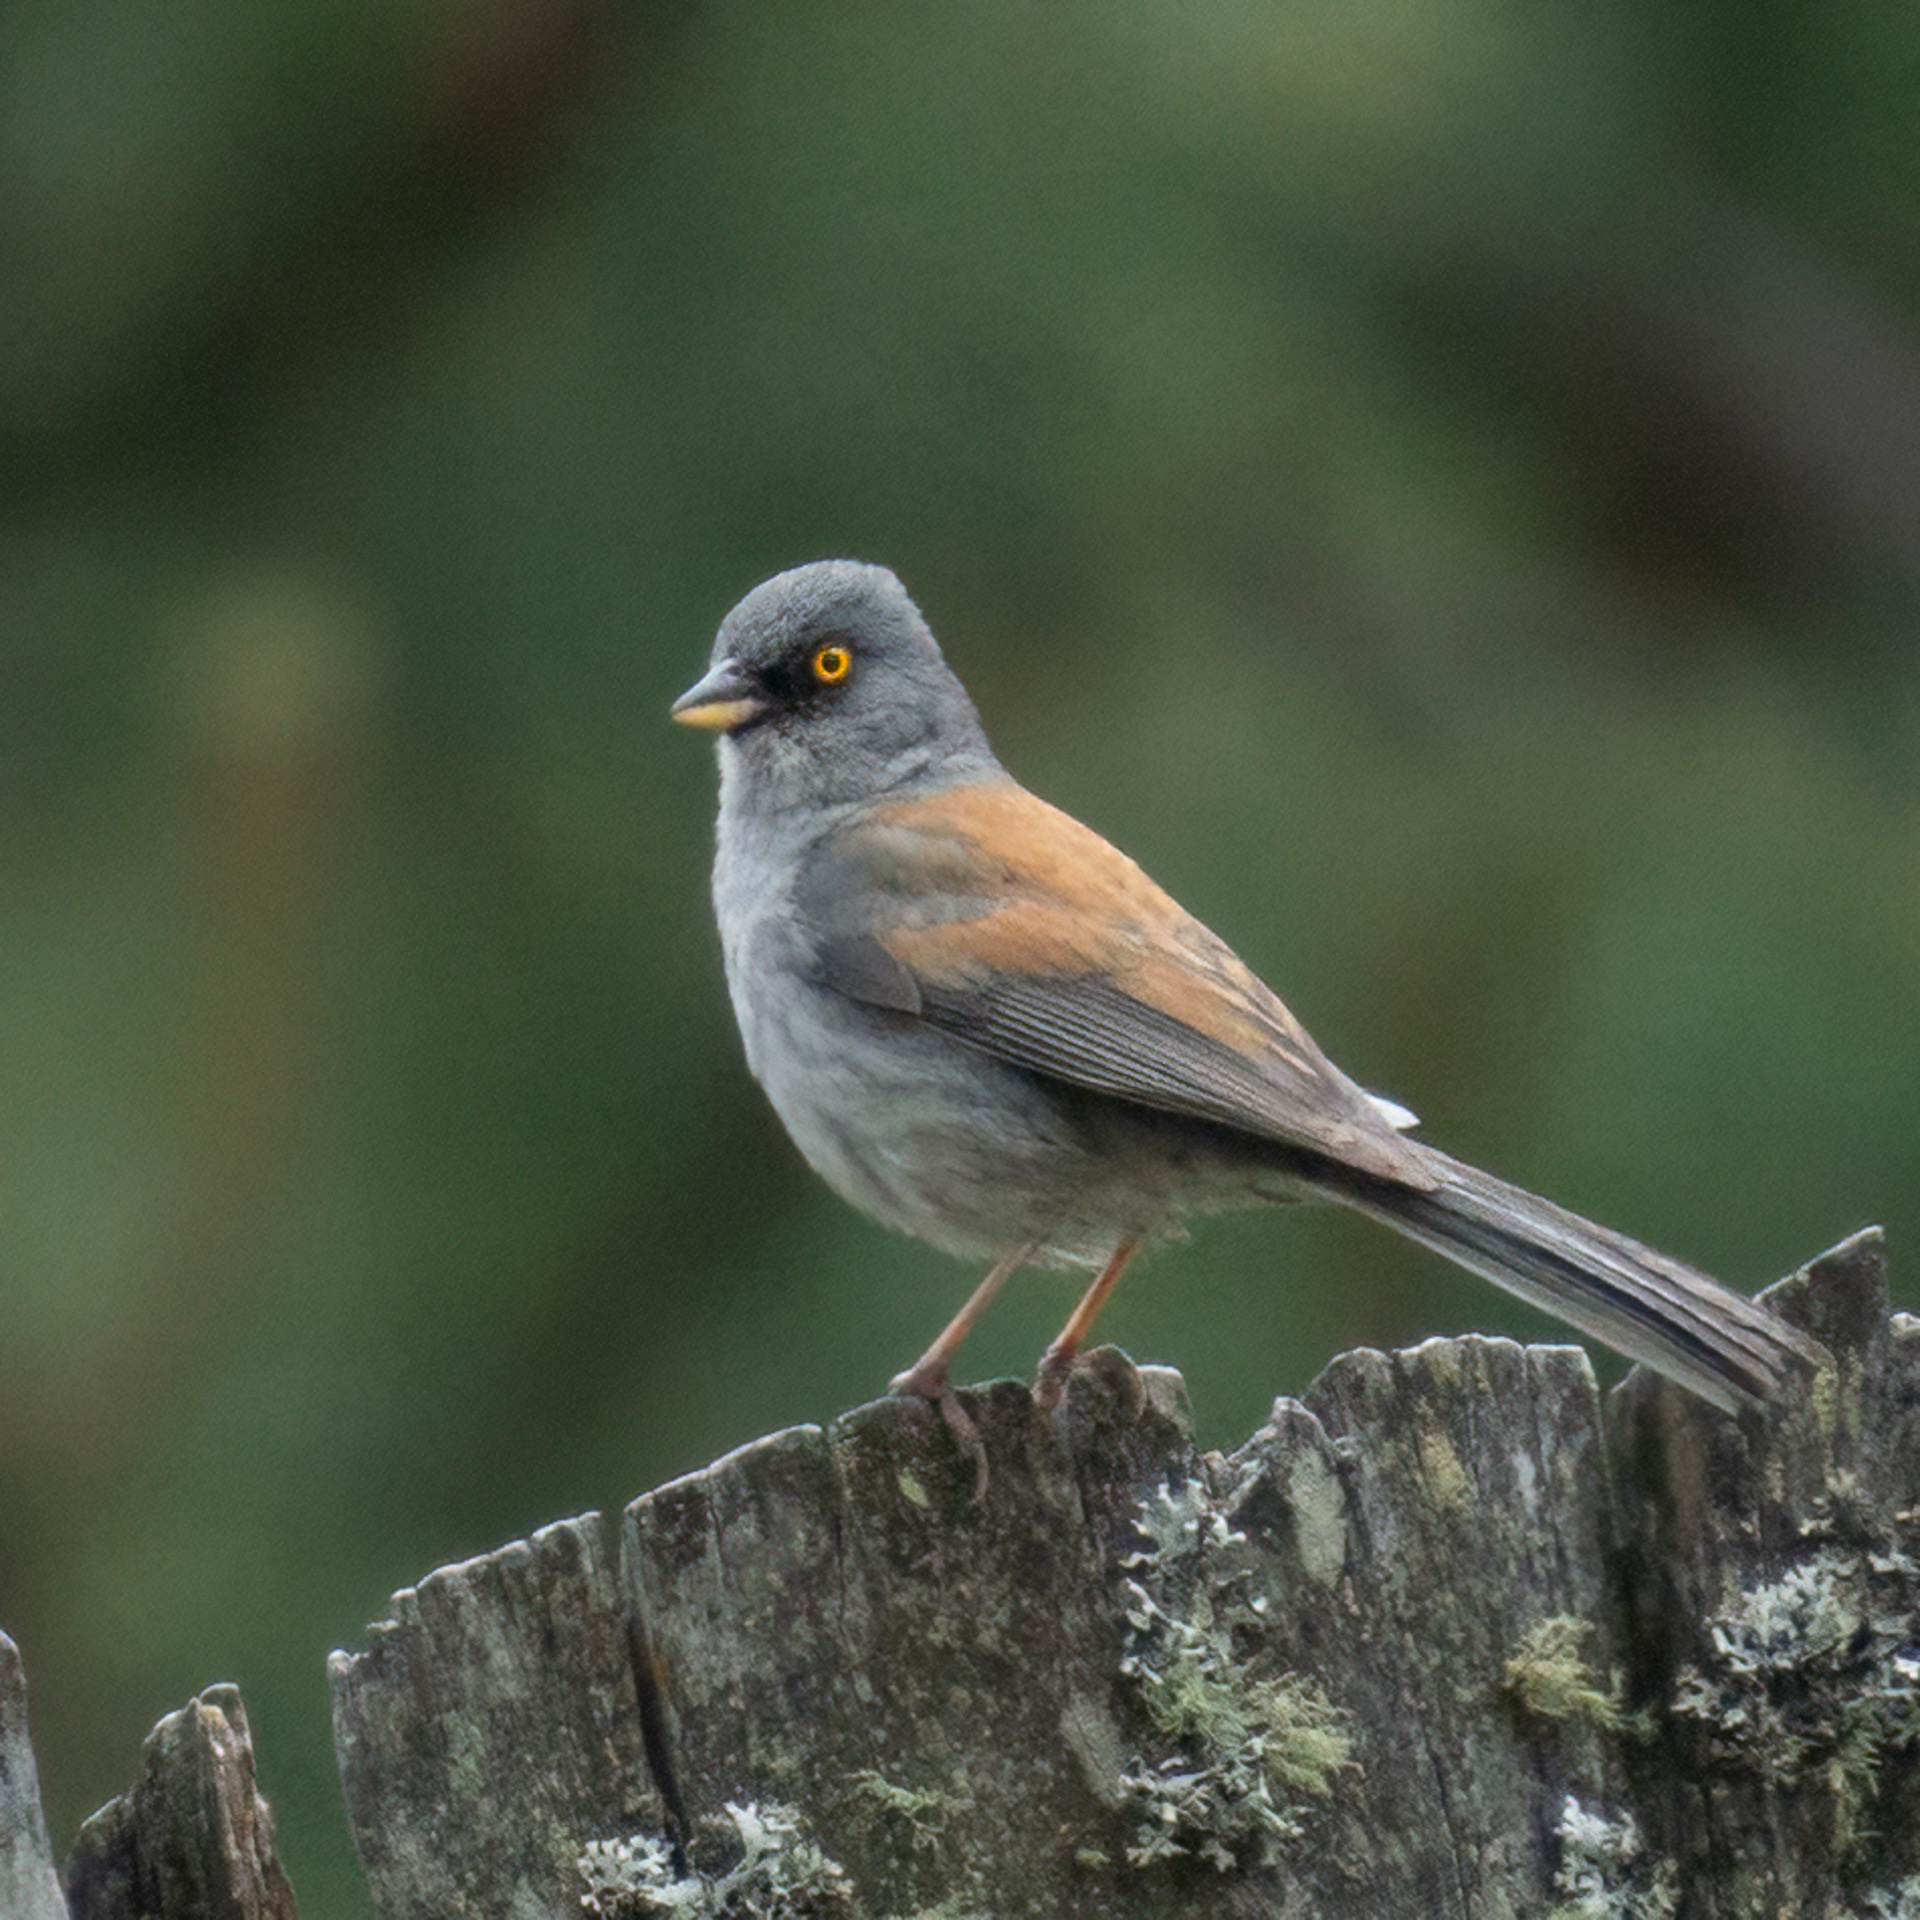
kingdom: Animalia
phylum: Chordata
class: Aves
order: Passeriformes
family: Passerellidae
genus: Junco
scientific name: Junco phaeonotus
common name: Yellow-eyed junco
